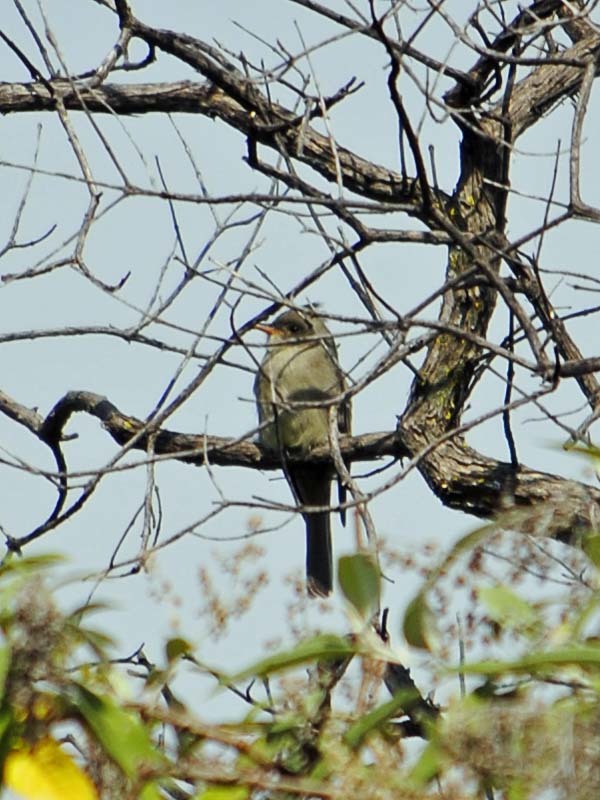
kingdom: Animalia
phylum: Chordata
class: Aves
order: Passeriformes
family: Tyrannidae
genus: Contopus
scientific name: Contopus pertinax
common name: Greater pewee
